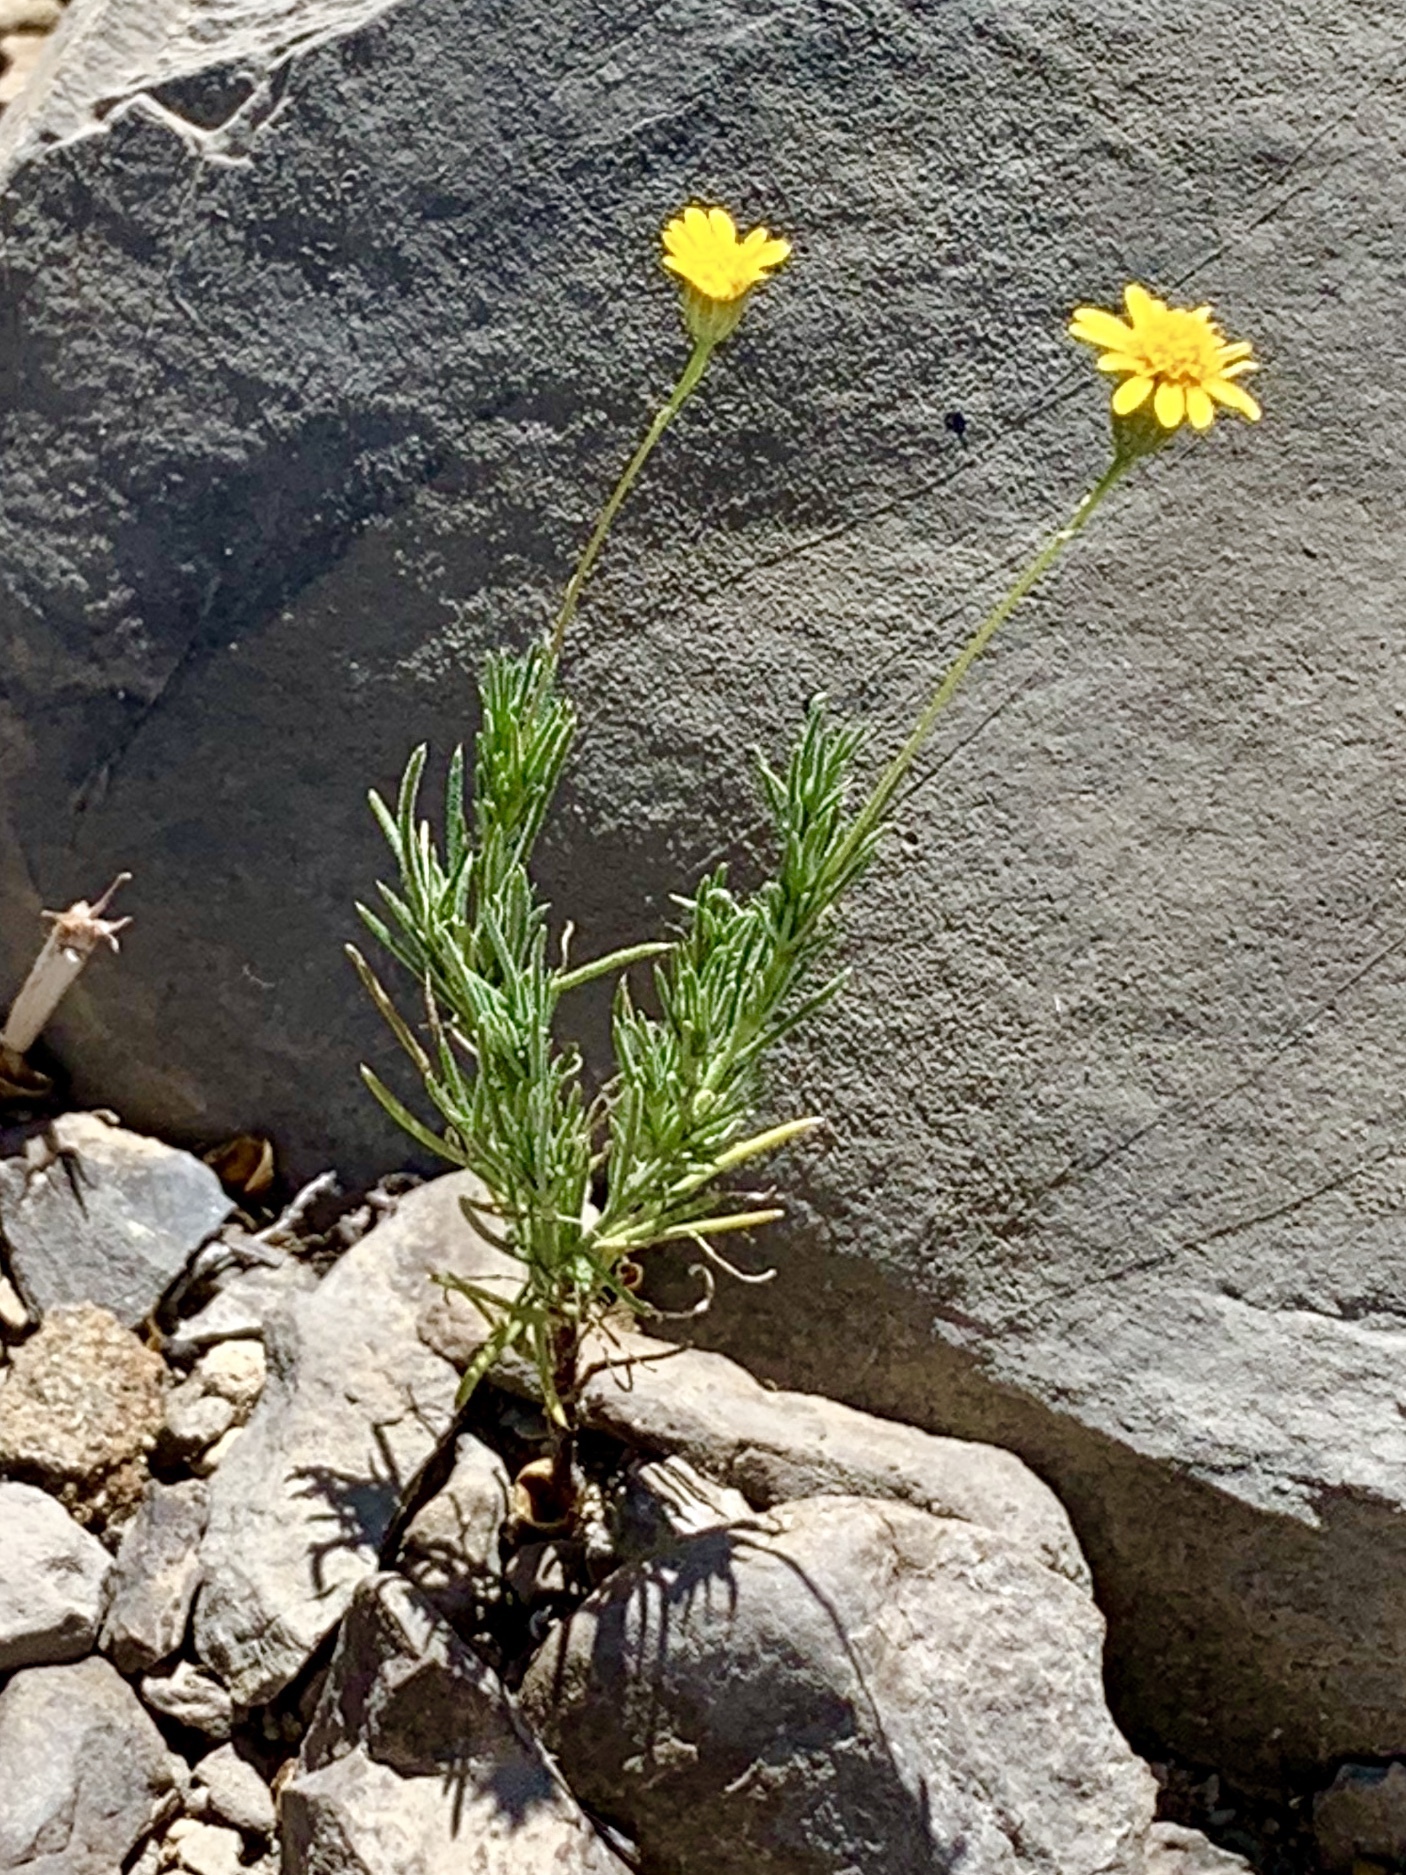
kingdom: Plantae
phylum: Tracheophyta
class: Magnoliopsida
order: Asterales
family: Asteraceae
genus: Thymophylla
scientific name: Thymophylla pentachaeta
